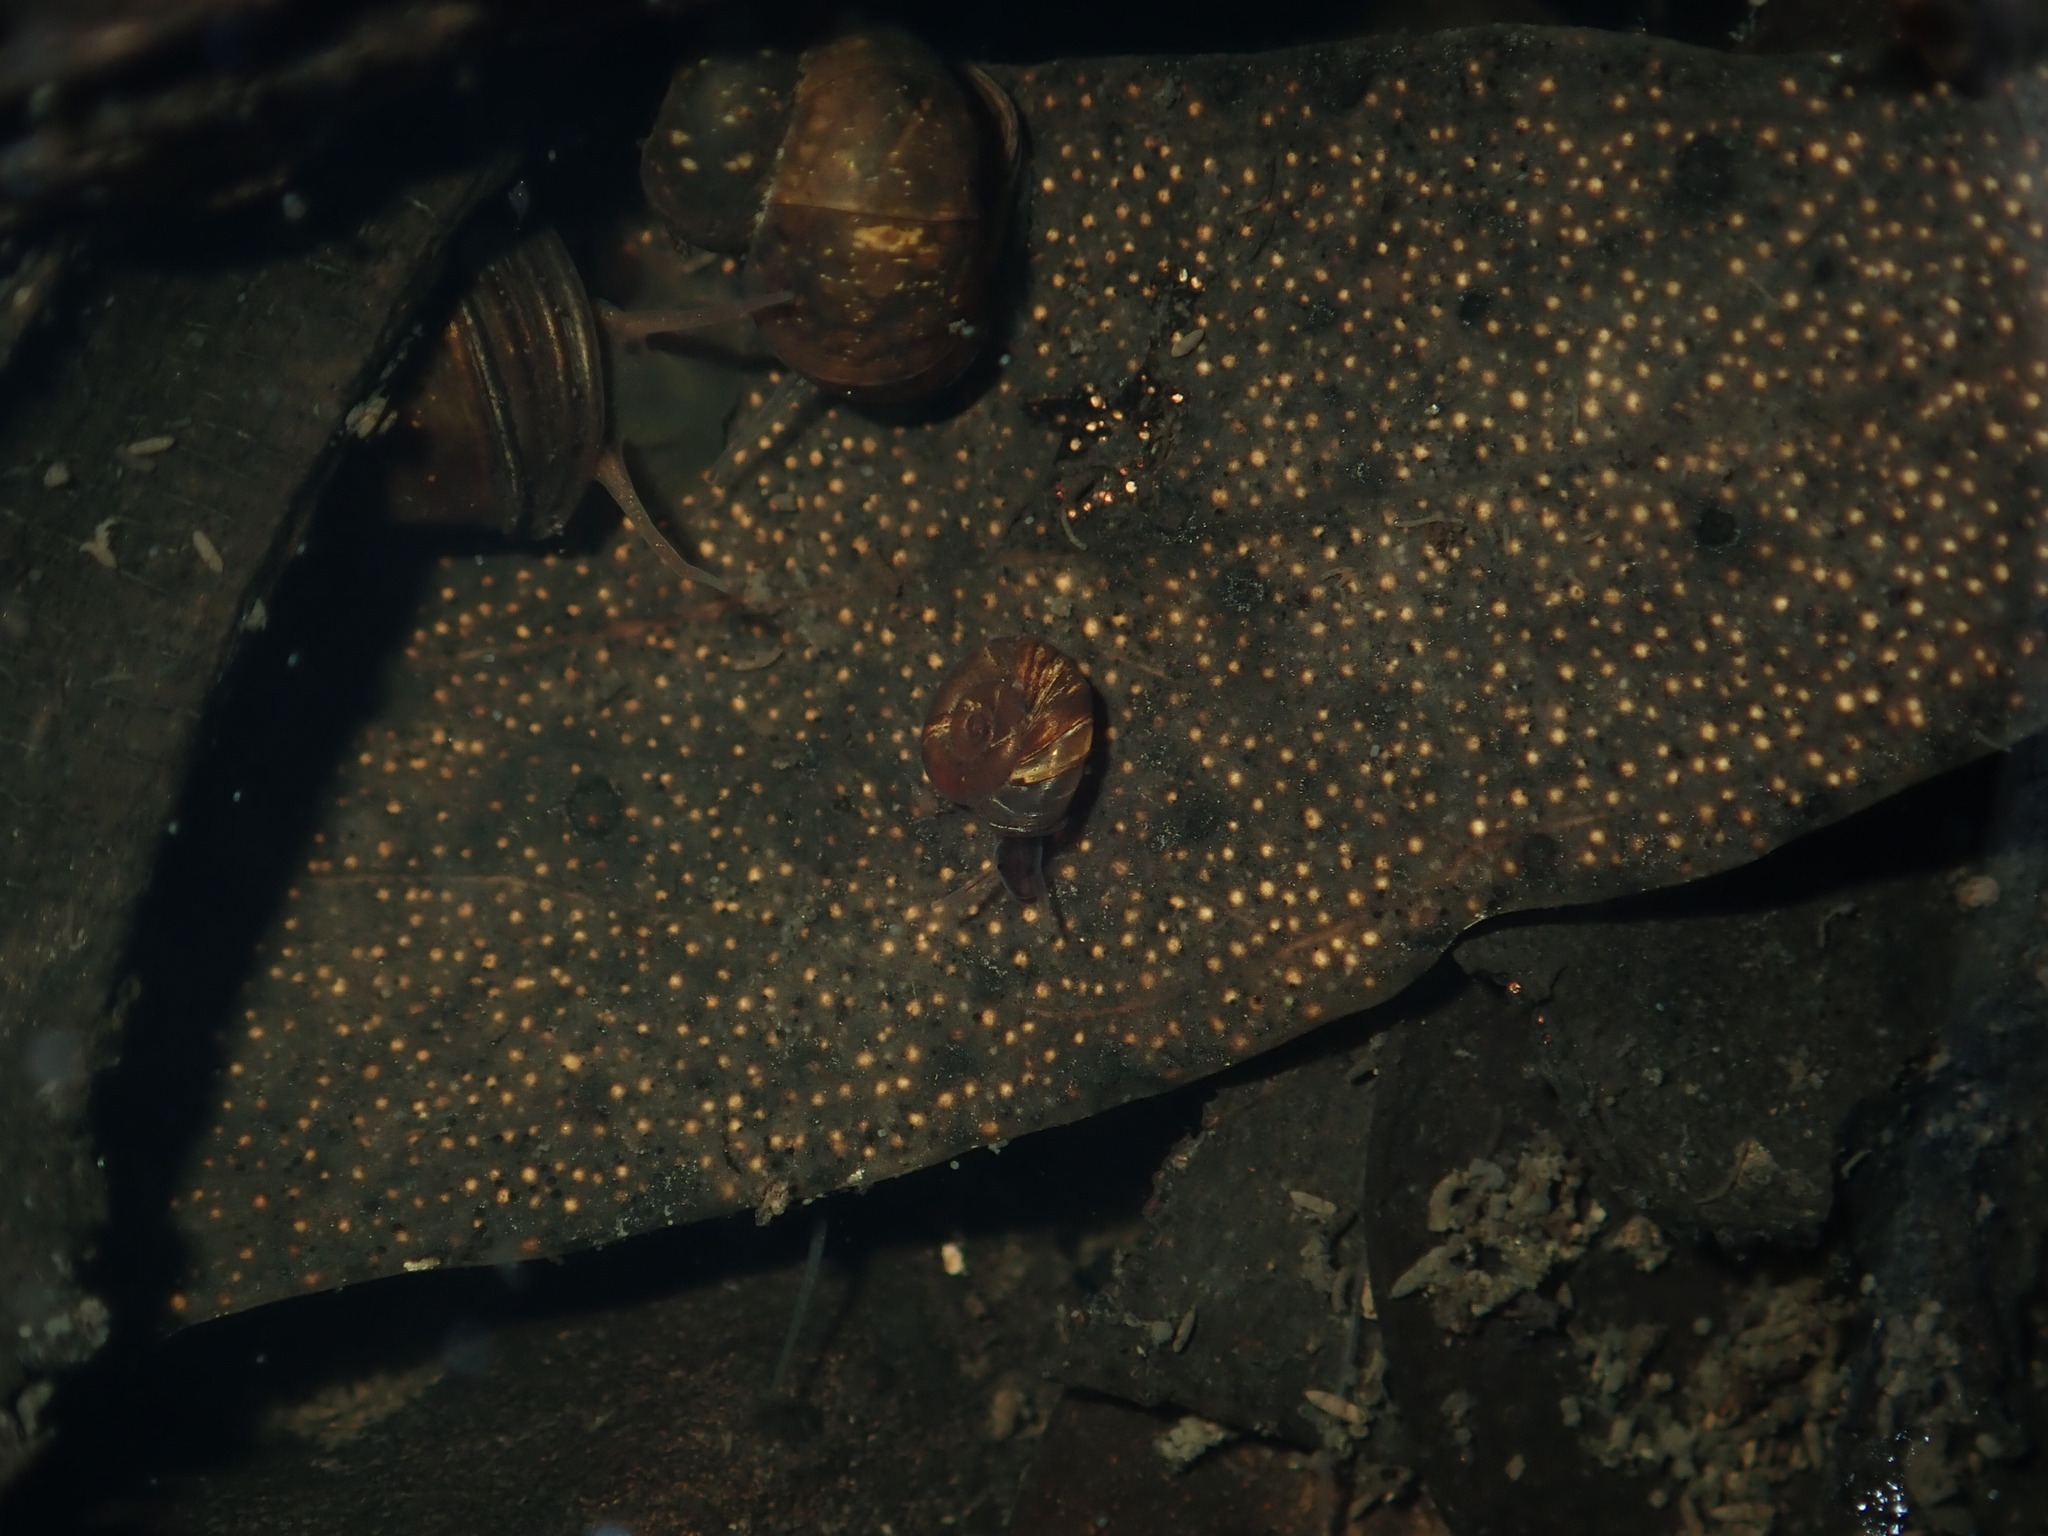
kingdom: Animalia
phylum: Mollusca
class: Gastropoda
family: Planorbidae
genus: Gyraulus
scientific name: Gyraulus scottianus
